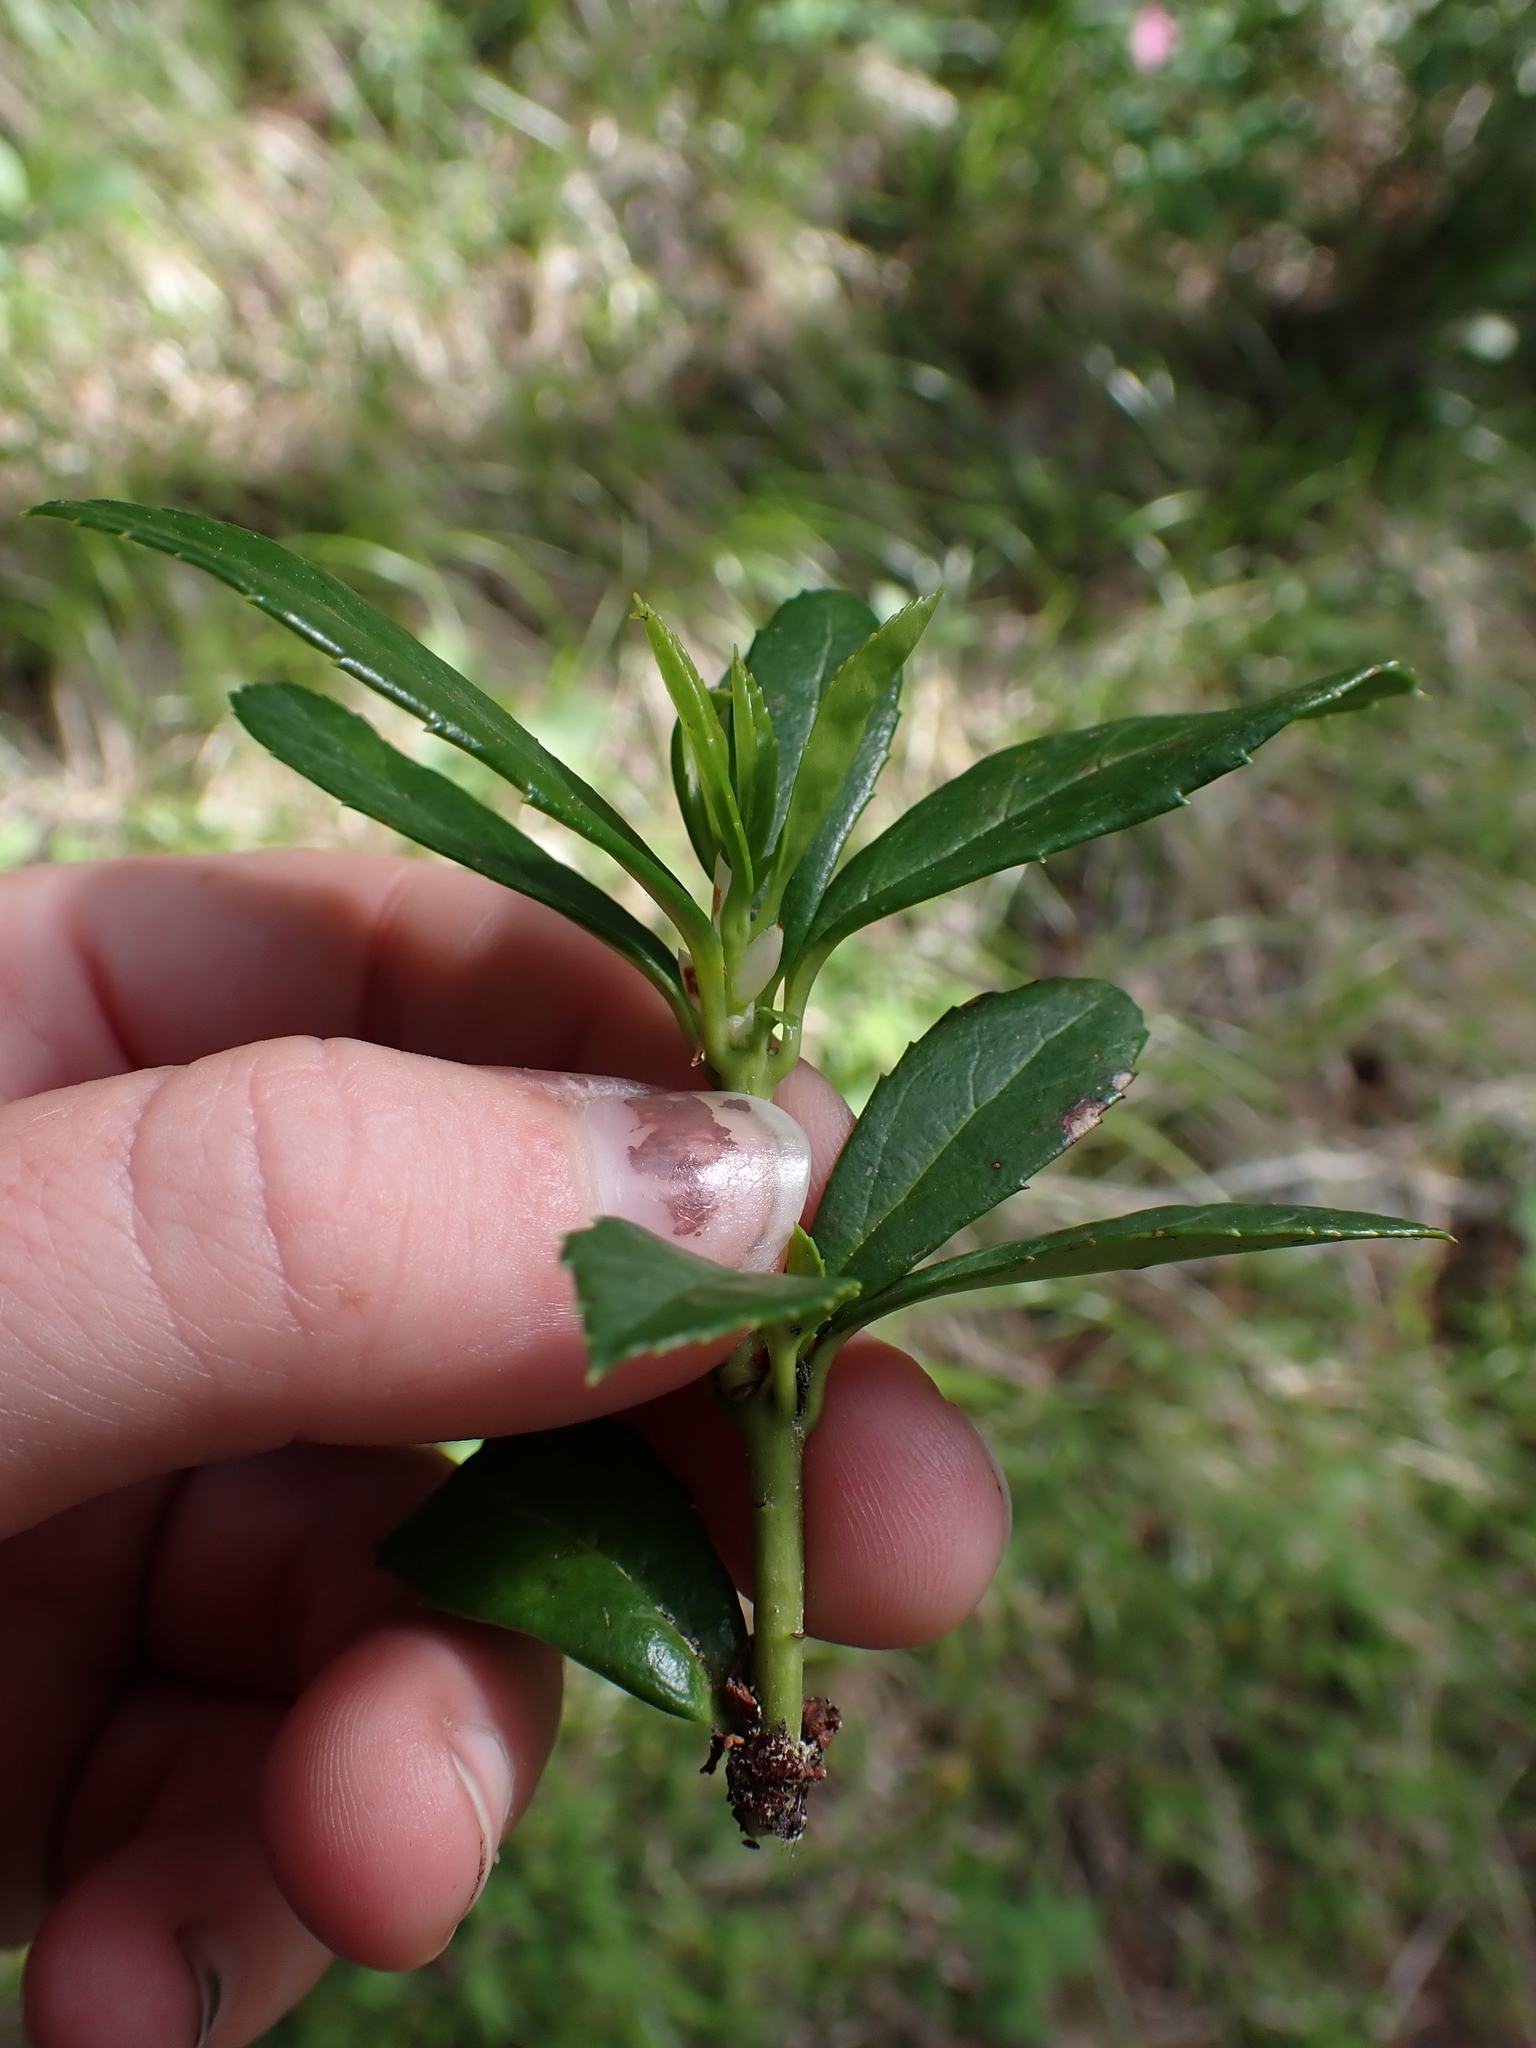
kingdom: Plantae
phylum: Tracheophyta
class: Magnoliopsida
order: Ericales
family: Ericaceae
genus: Chimaphila
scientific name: Chimaphila umbellata
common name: Pipsissewa
